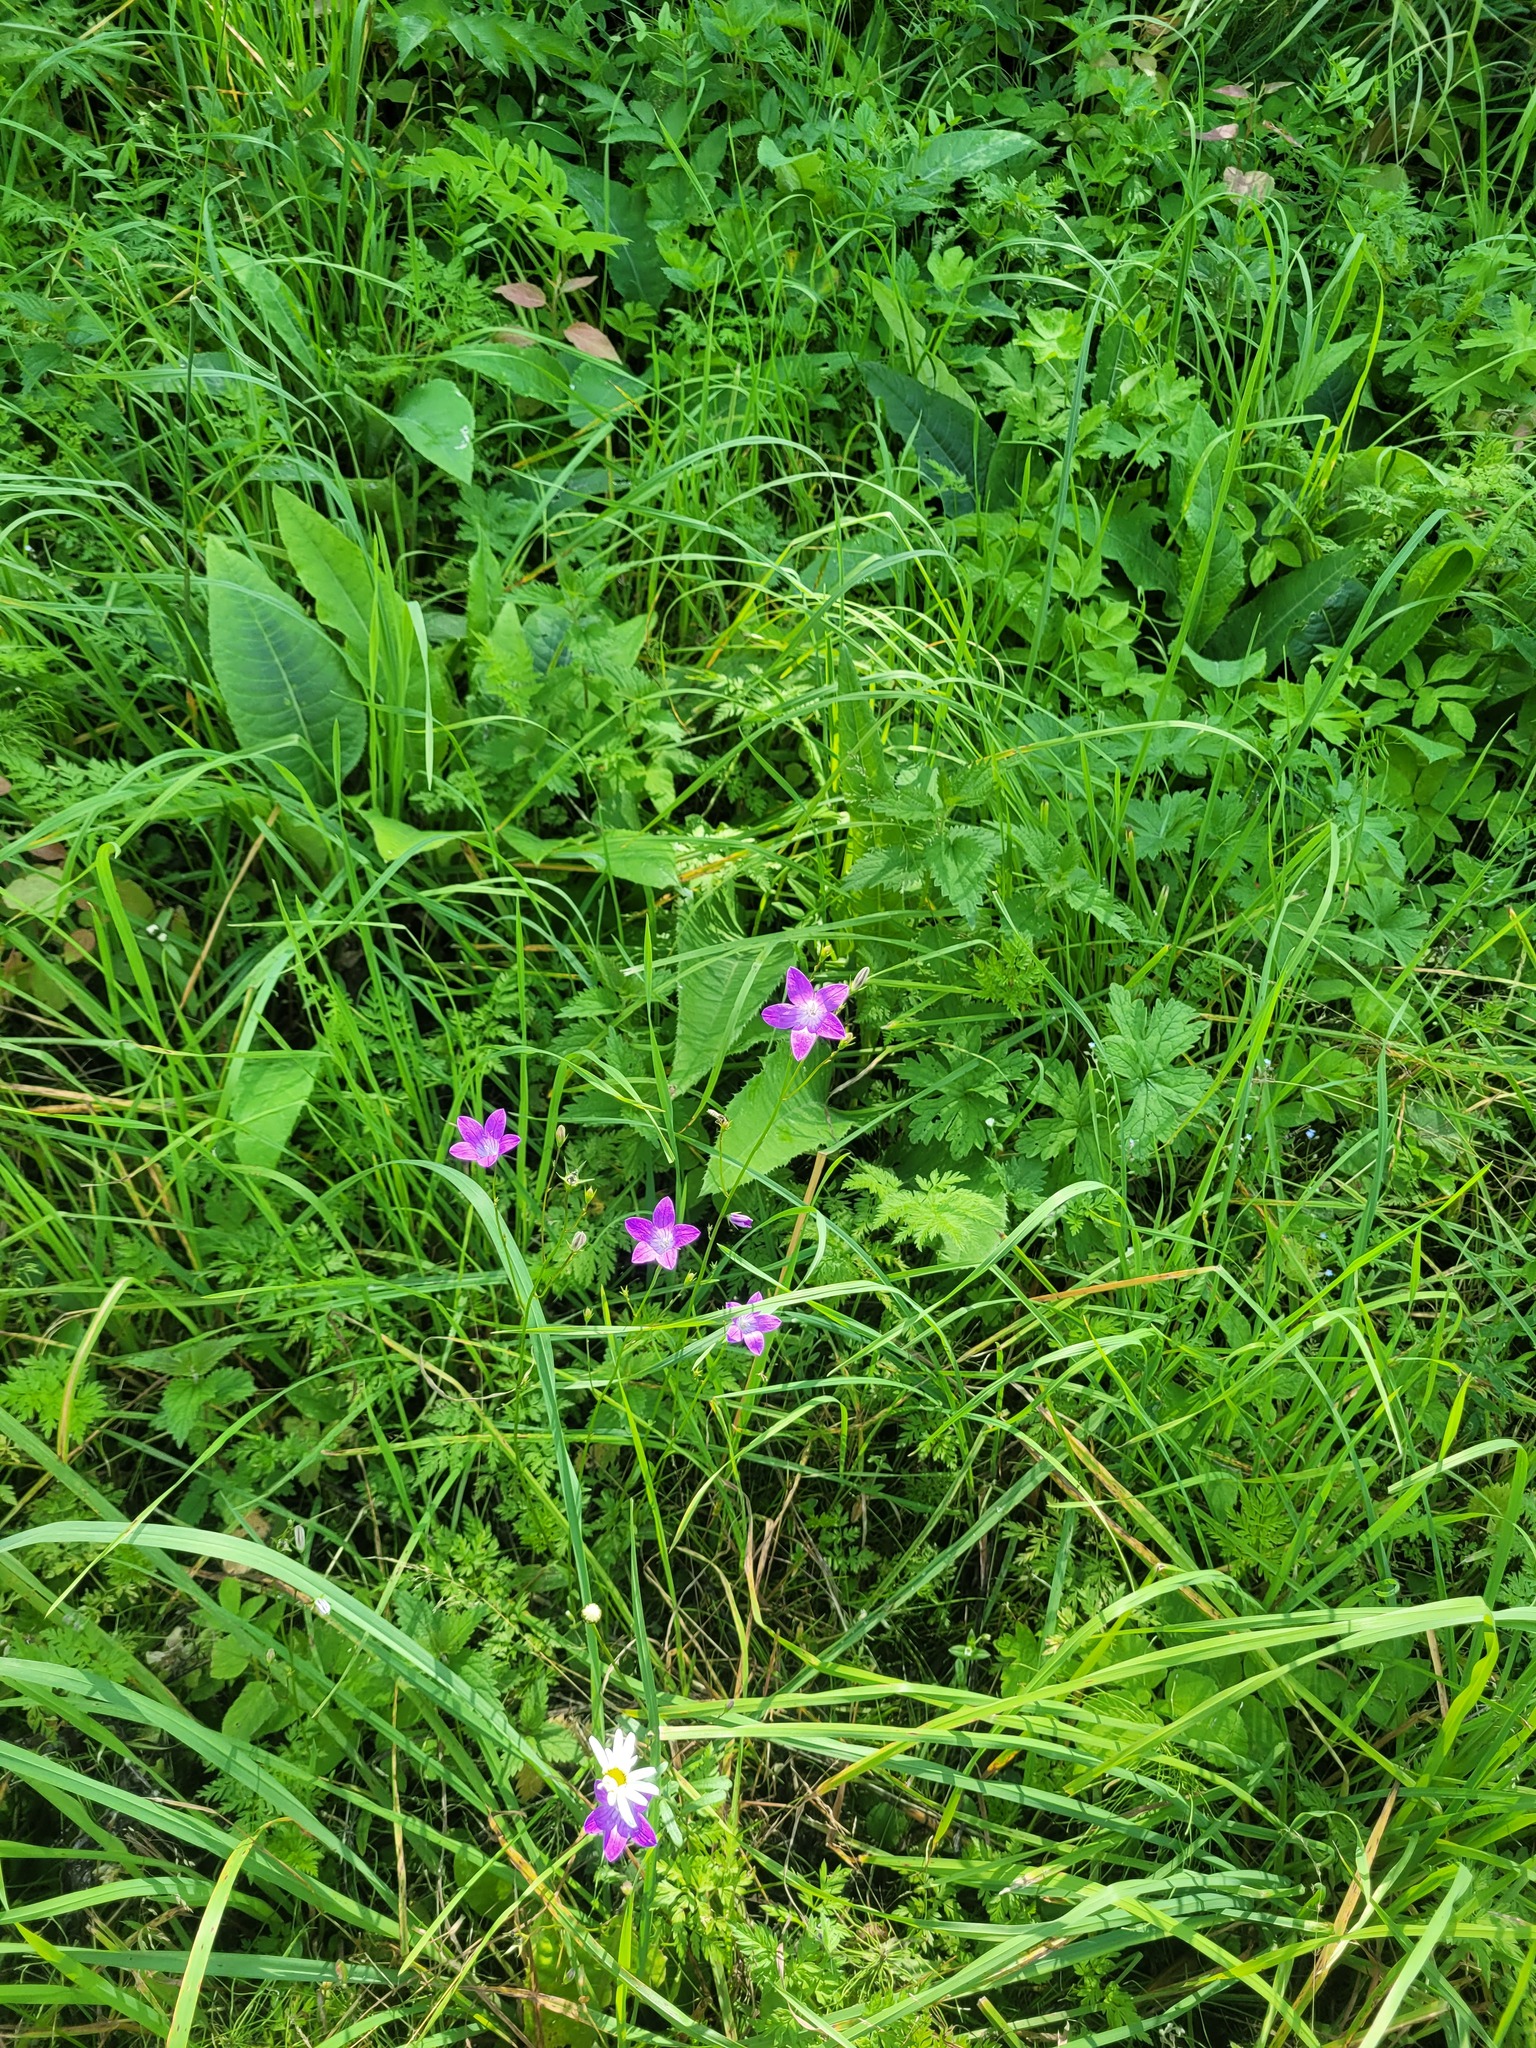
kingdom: Plantae
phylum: Tracheophyta
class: Magnoliopsida
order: Asterales
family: Campanulaceae
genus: Campanula
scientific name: Campanula patula
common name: Spreading bellflower
